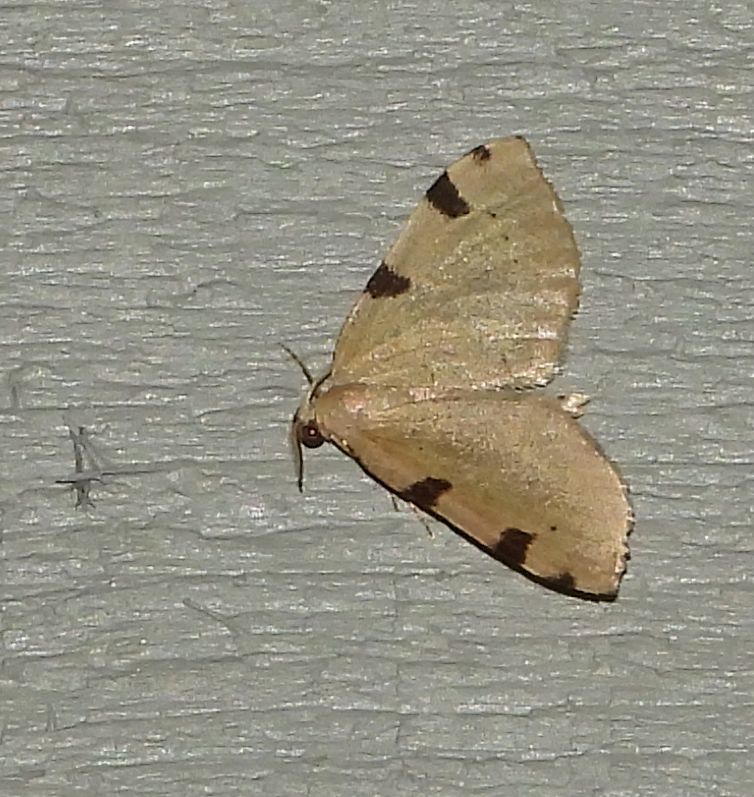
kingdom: Animalia
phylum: Arthropoda
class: Insecta
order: Lepidoptera
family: Geometridae
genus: Heterophleps
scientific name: Heterophleps triguttaria
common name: Three-spotted fillip
